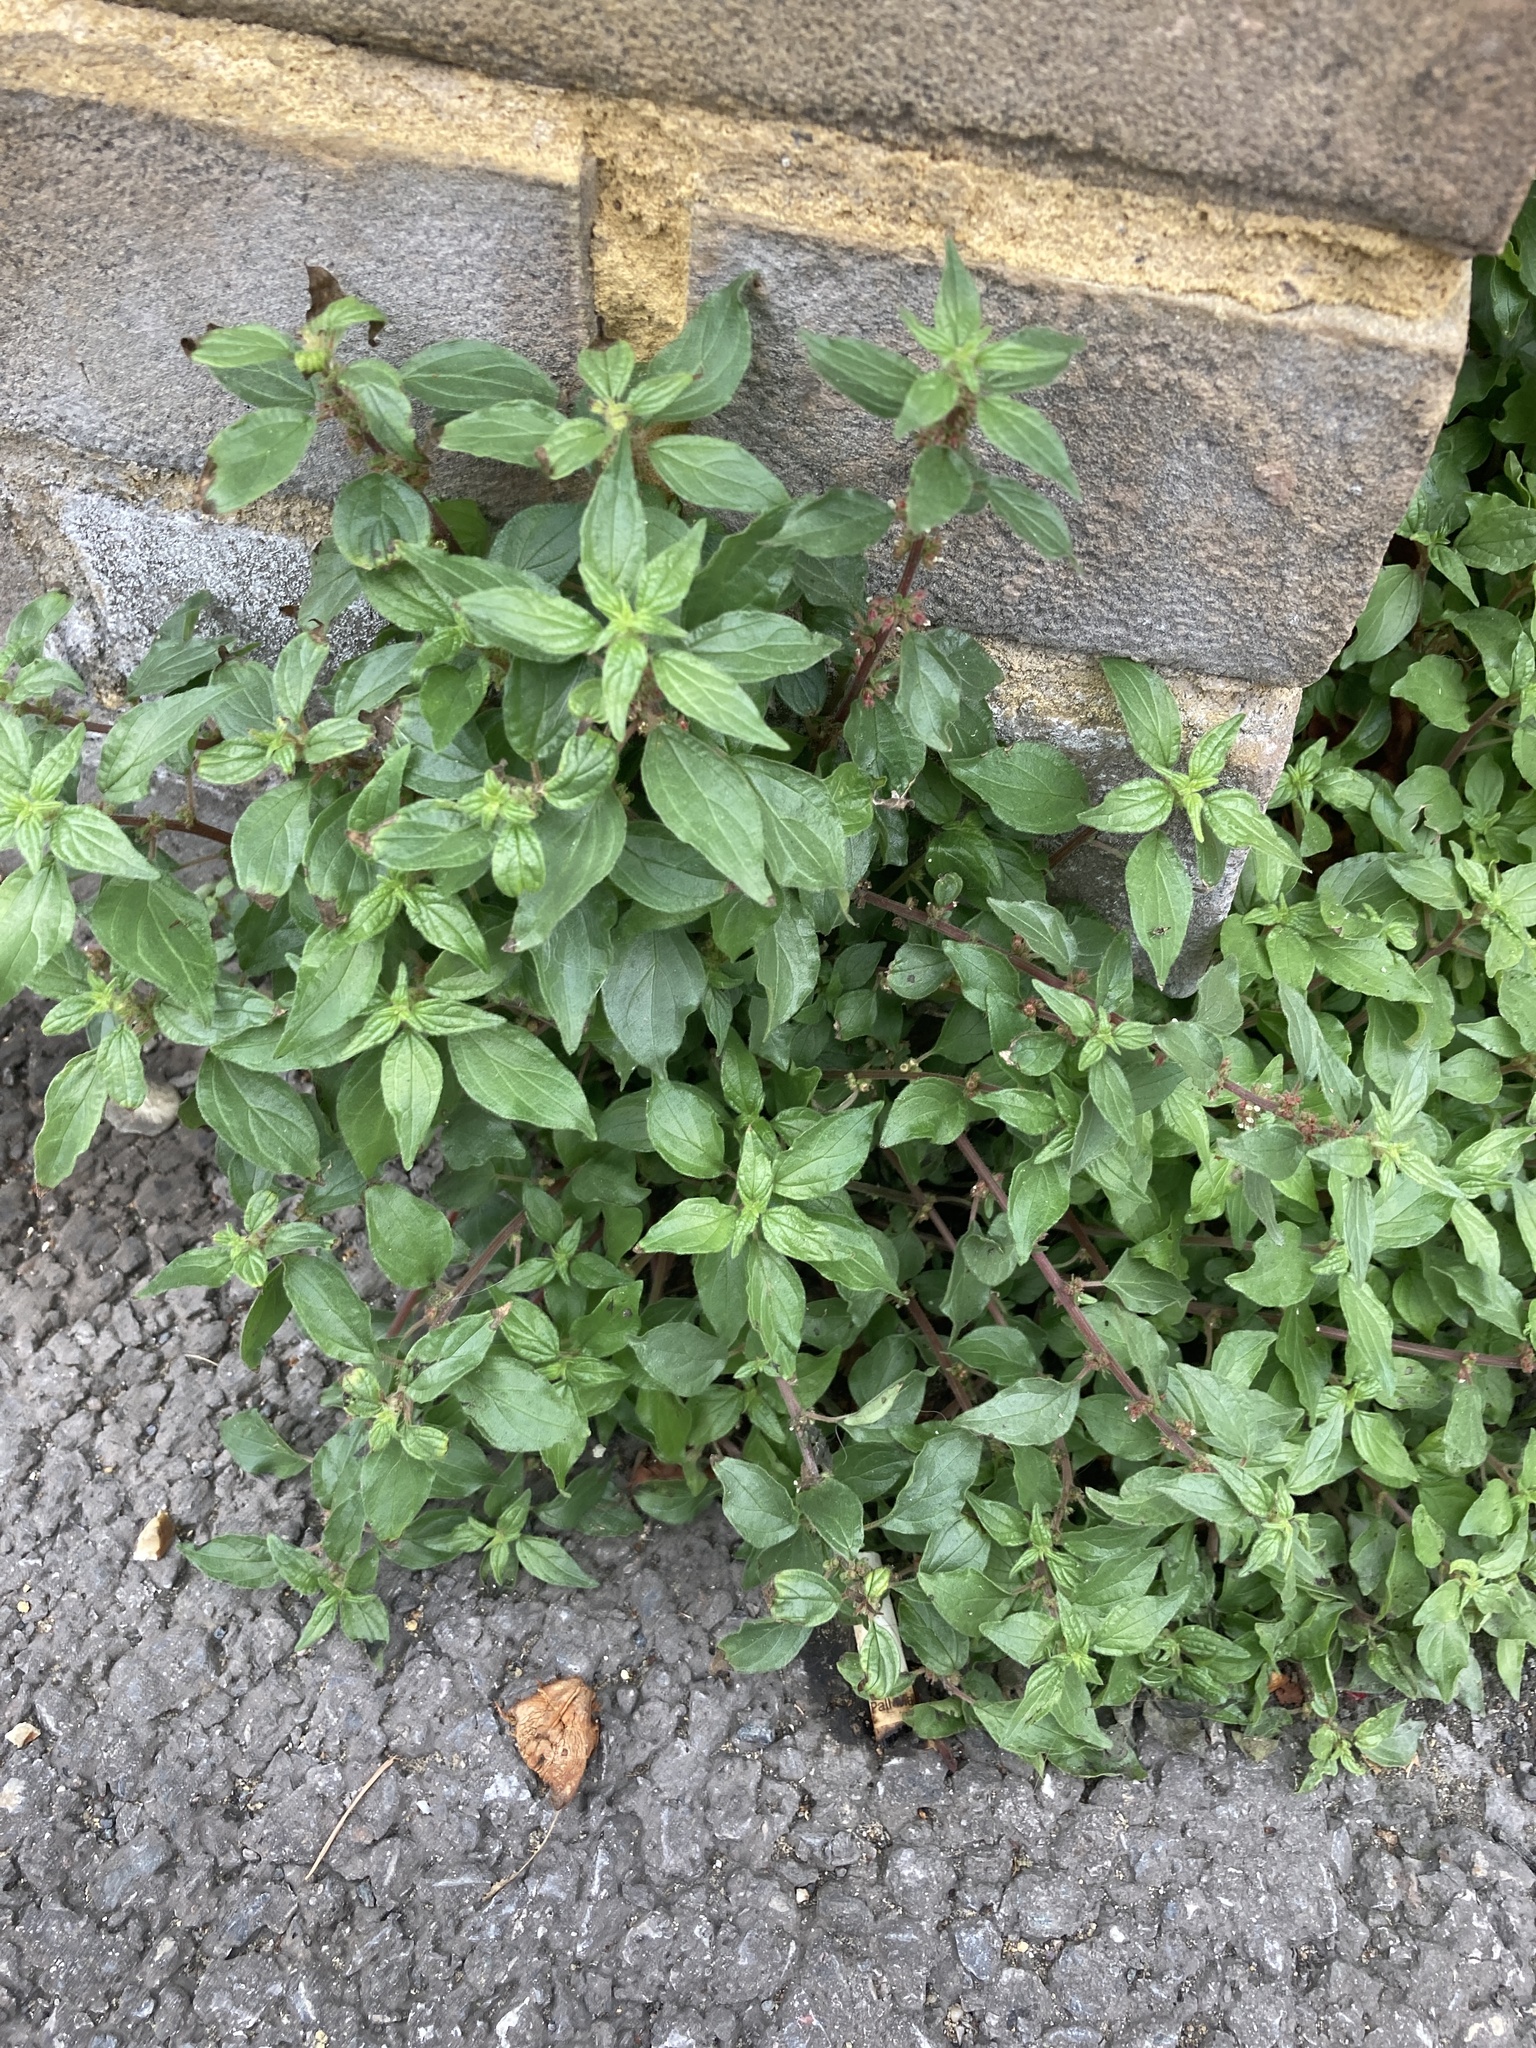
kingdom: Plantae
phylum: Tracheophyta
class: Magnoliopsida
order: Rosales
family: Urticaceae
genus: Parietaria
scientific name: Parietaria judaica
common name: Pellitory-of-the-wall
